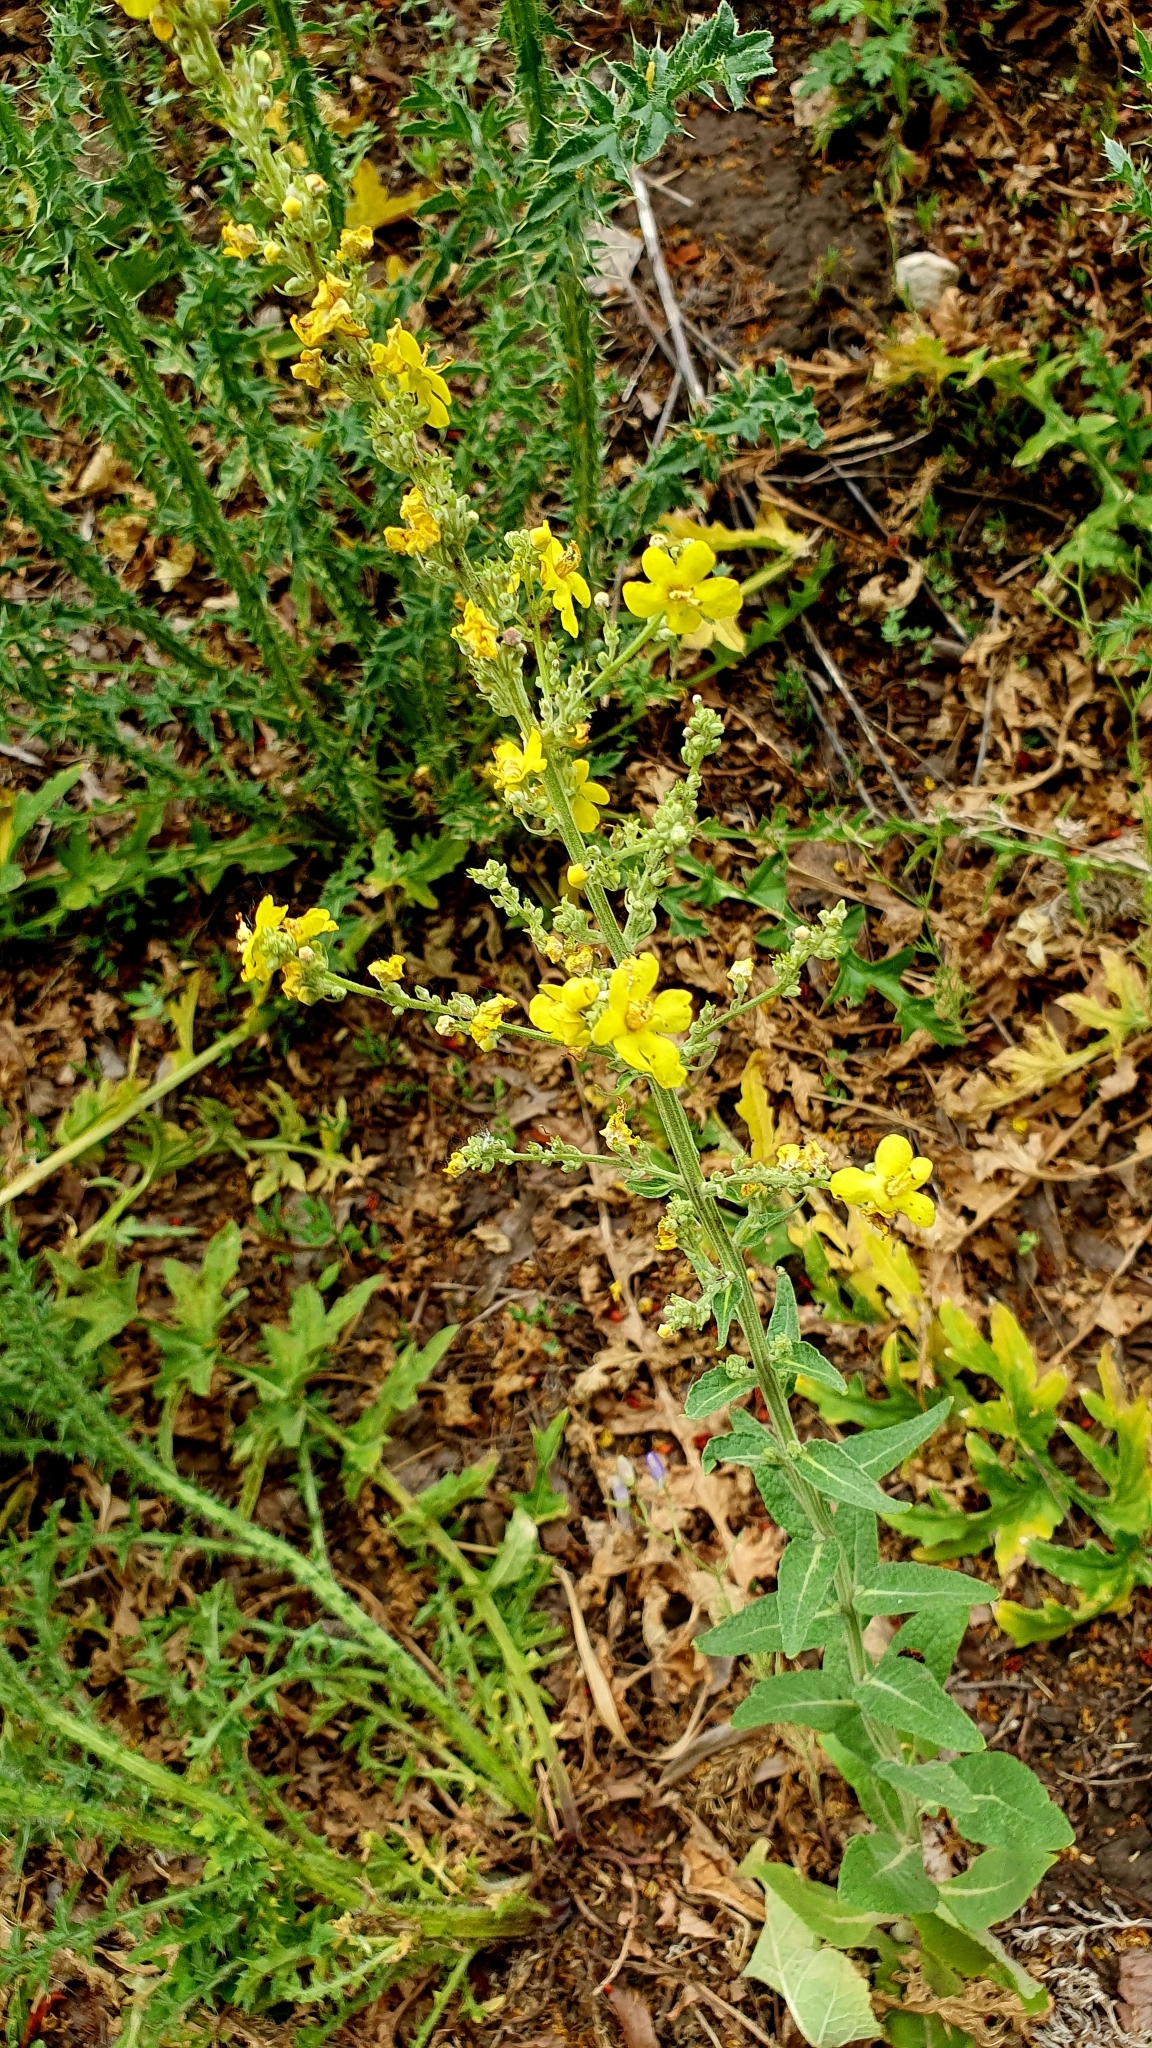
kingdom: Plantae
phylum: Tracheophyta
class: Magnoliopsida
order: Lamiales
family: Scrophulariaceae
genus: Verbascum
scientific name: Verbascum lychnitis
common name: White mullein
